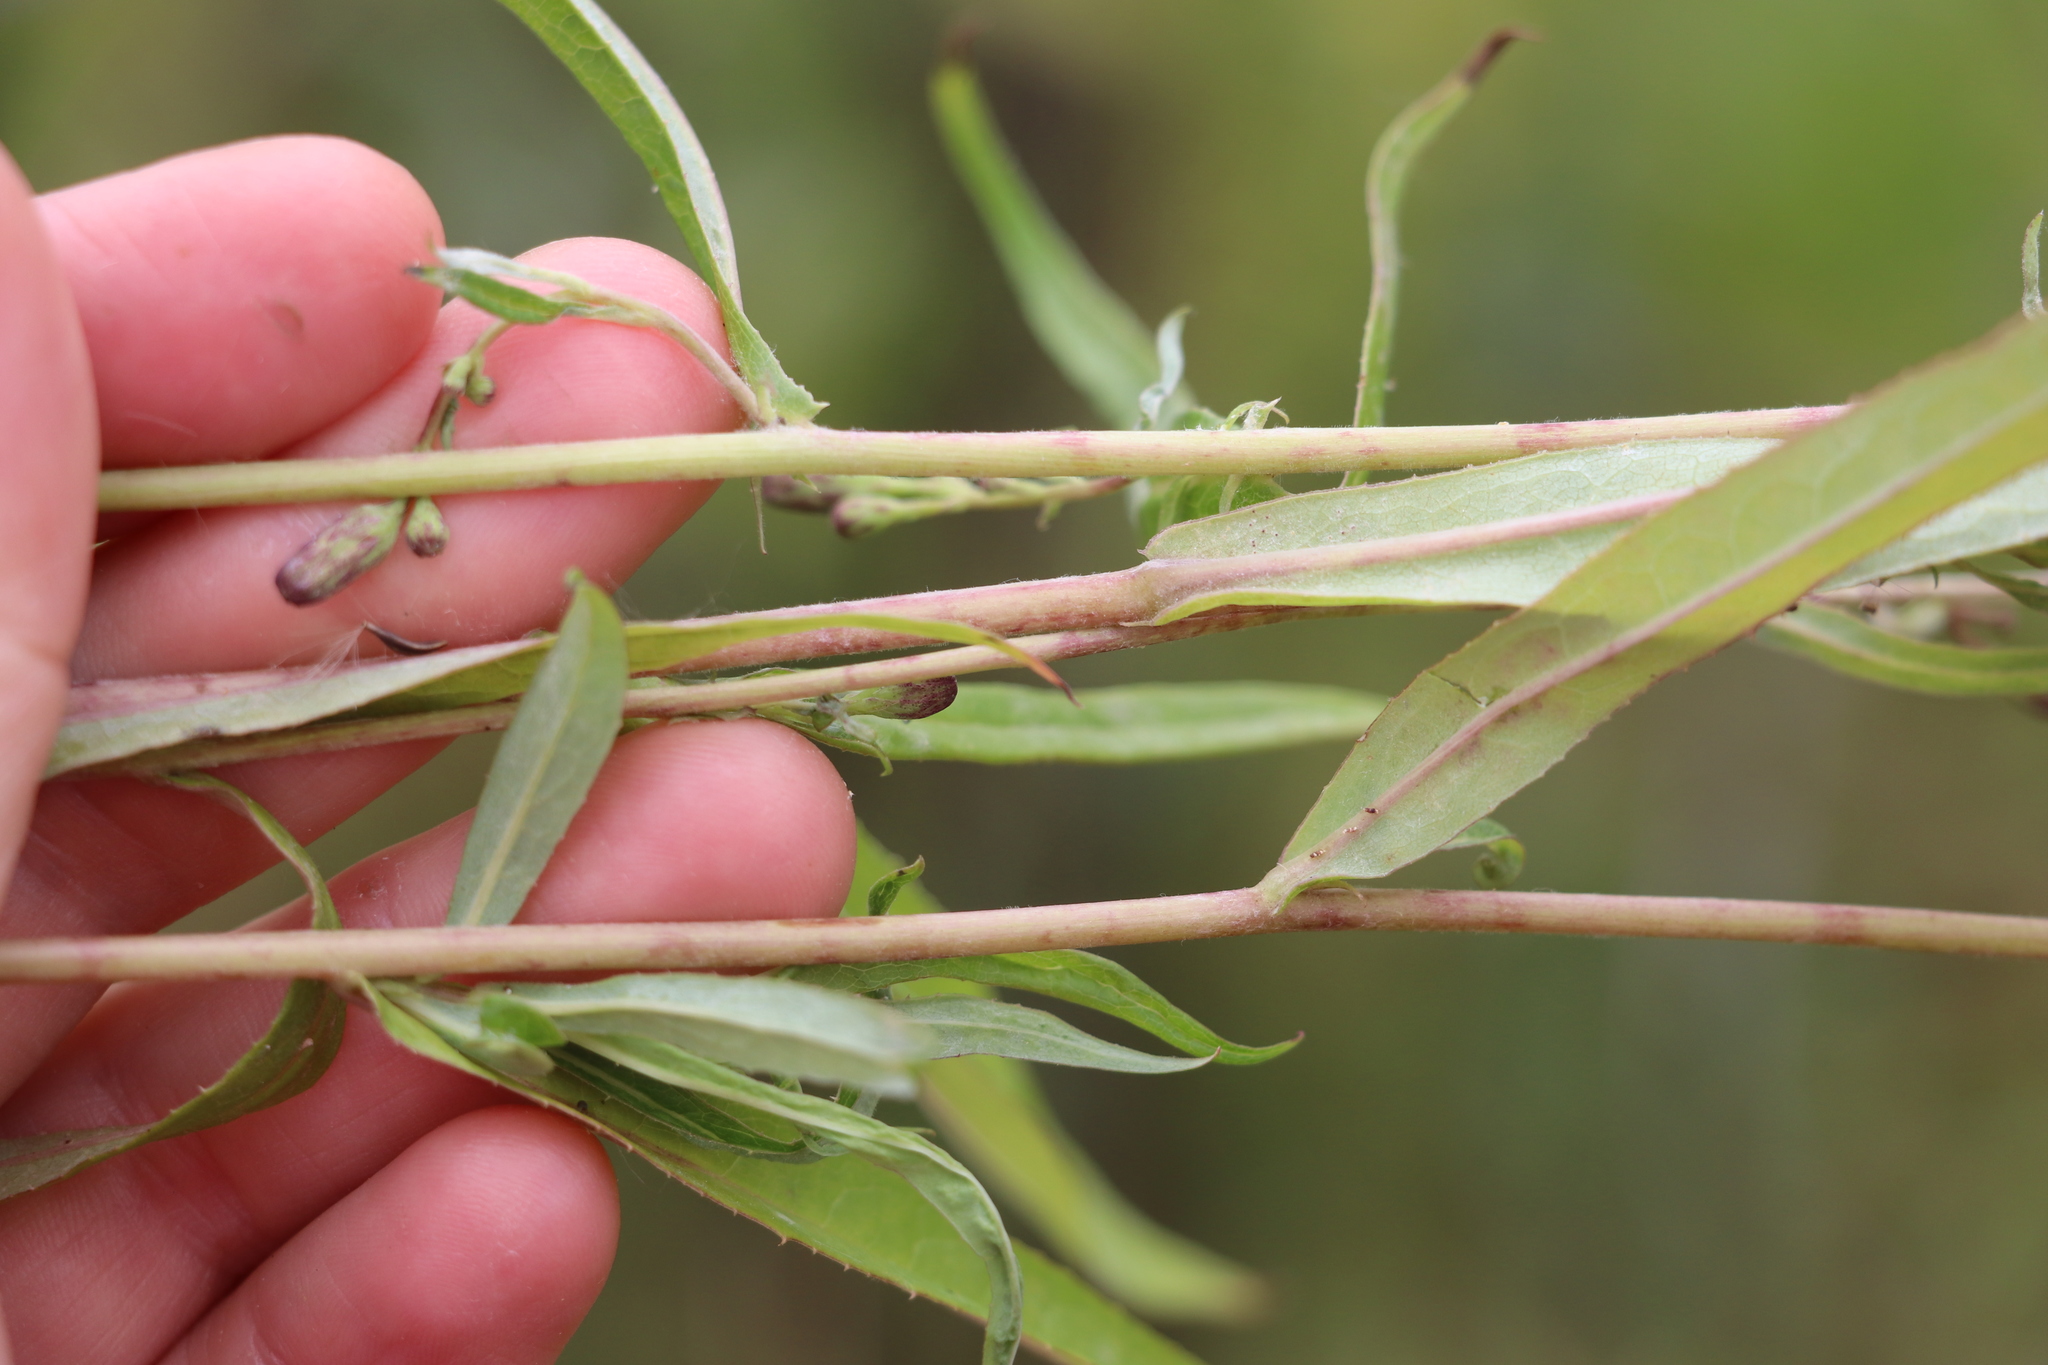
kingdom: Plantae
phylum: Tracheophyta
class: Magnoliopsida
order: Asterales
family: Asteraceae
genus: Lactuca
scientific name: Lactuca sibirica
